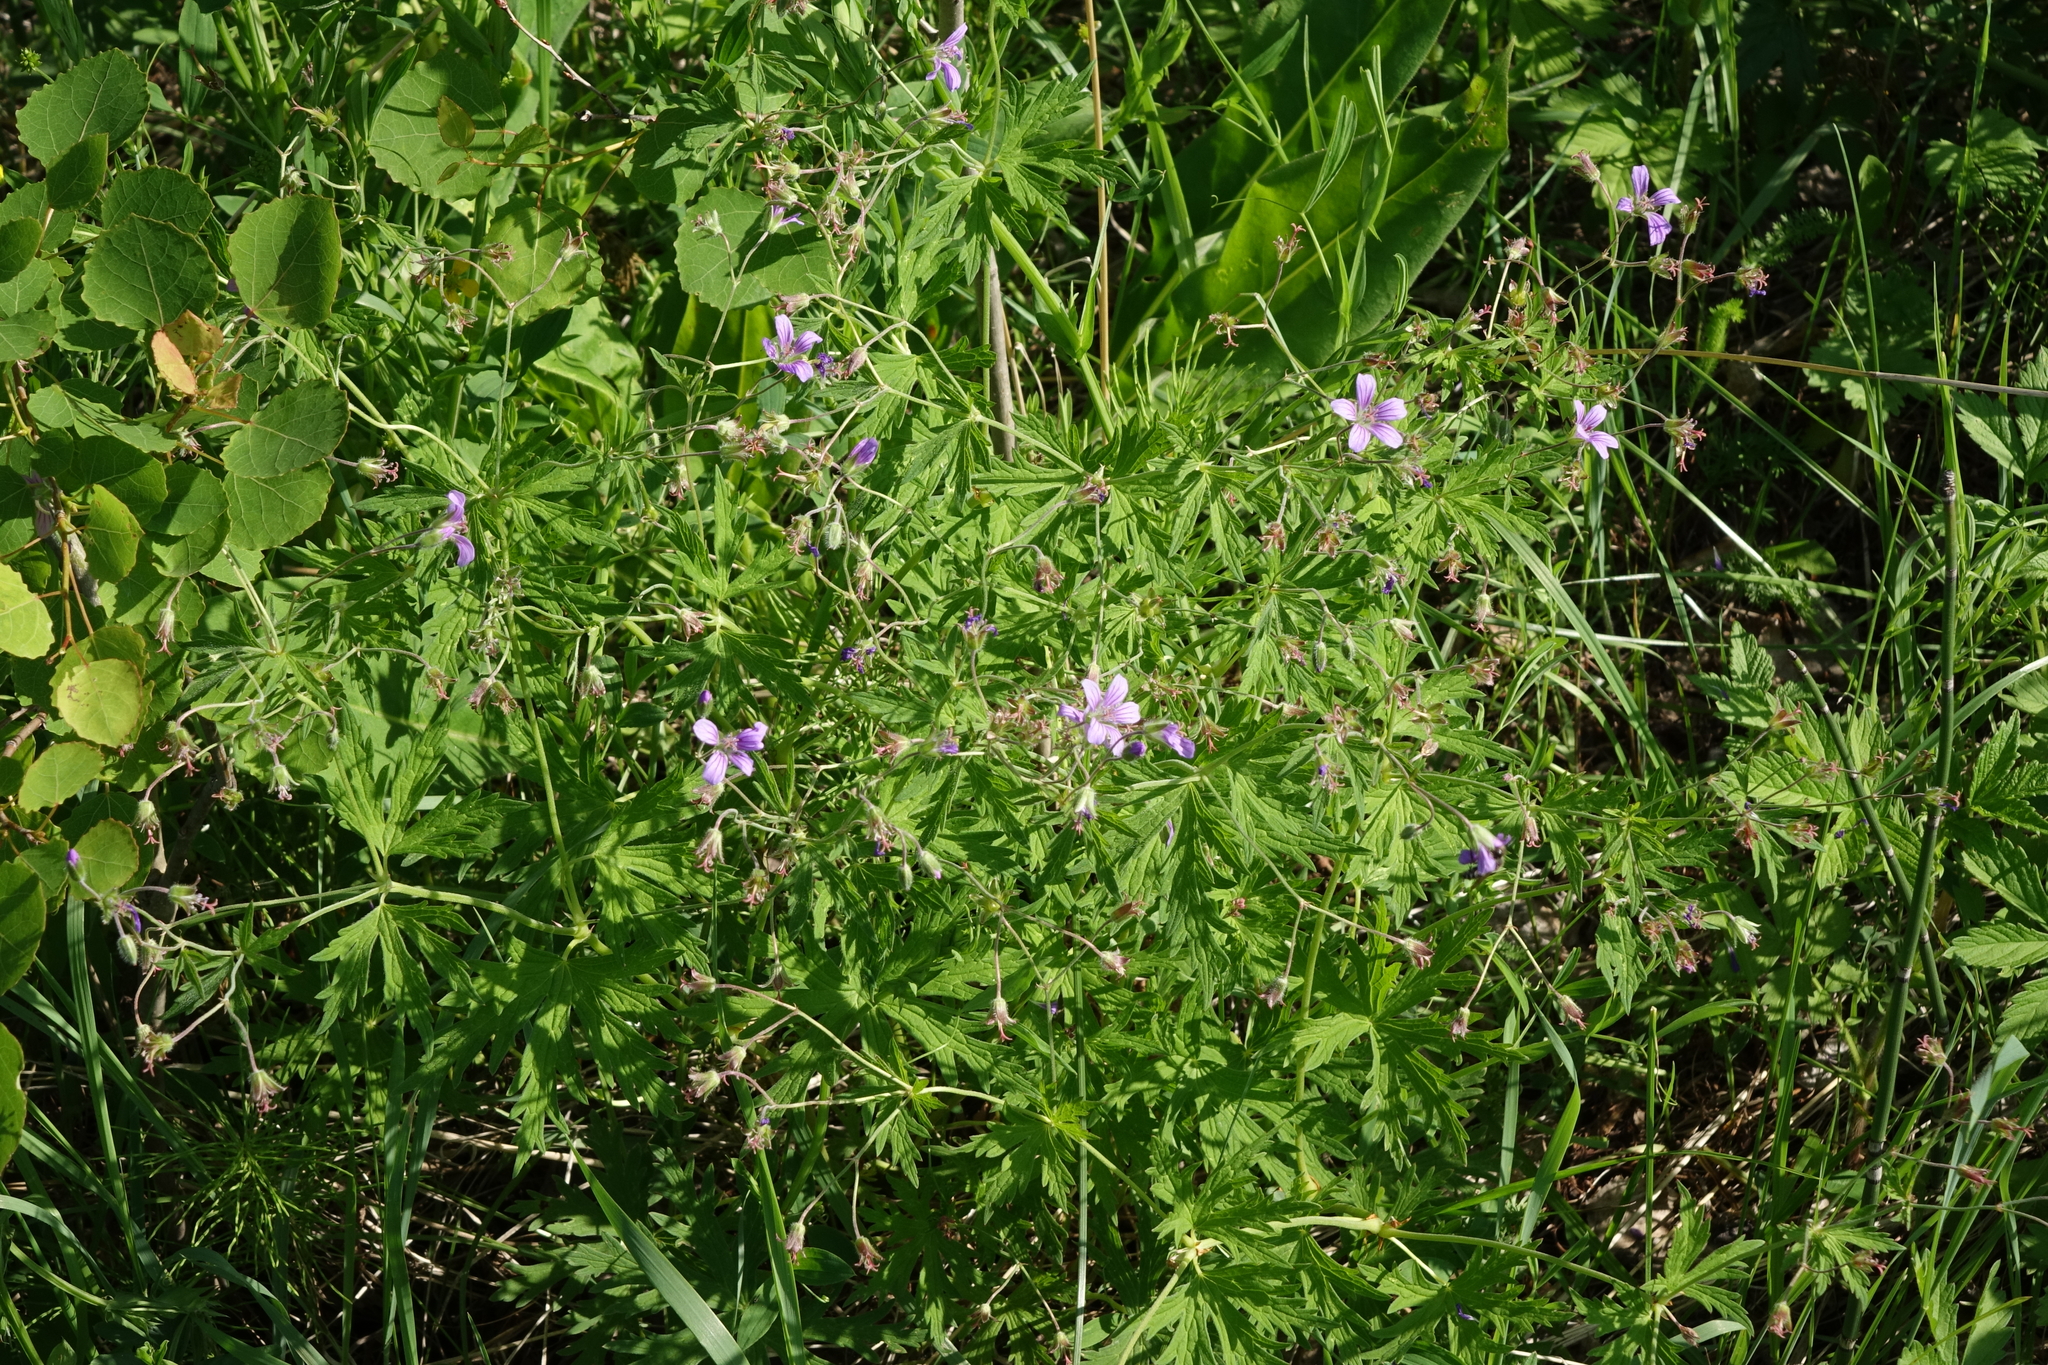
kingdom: Plantae
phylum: Tracheophyta
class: Magnoliopsida
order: Geraniales
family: Geraniaceae
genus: Geranium
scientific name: Geranium pseudosibiricum
